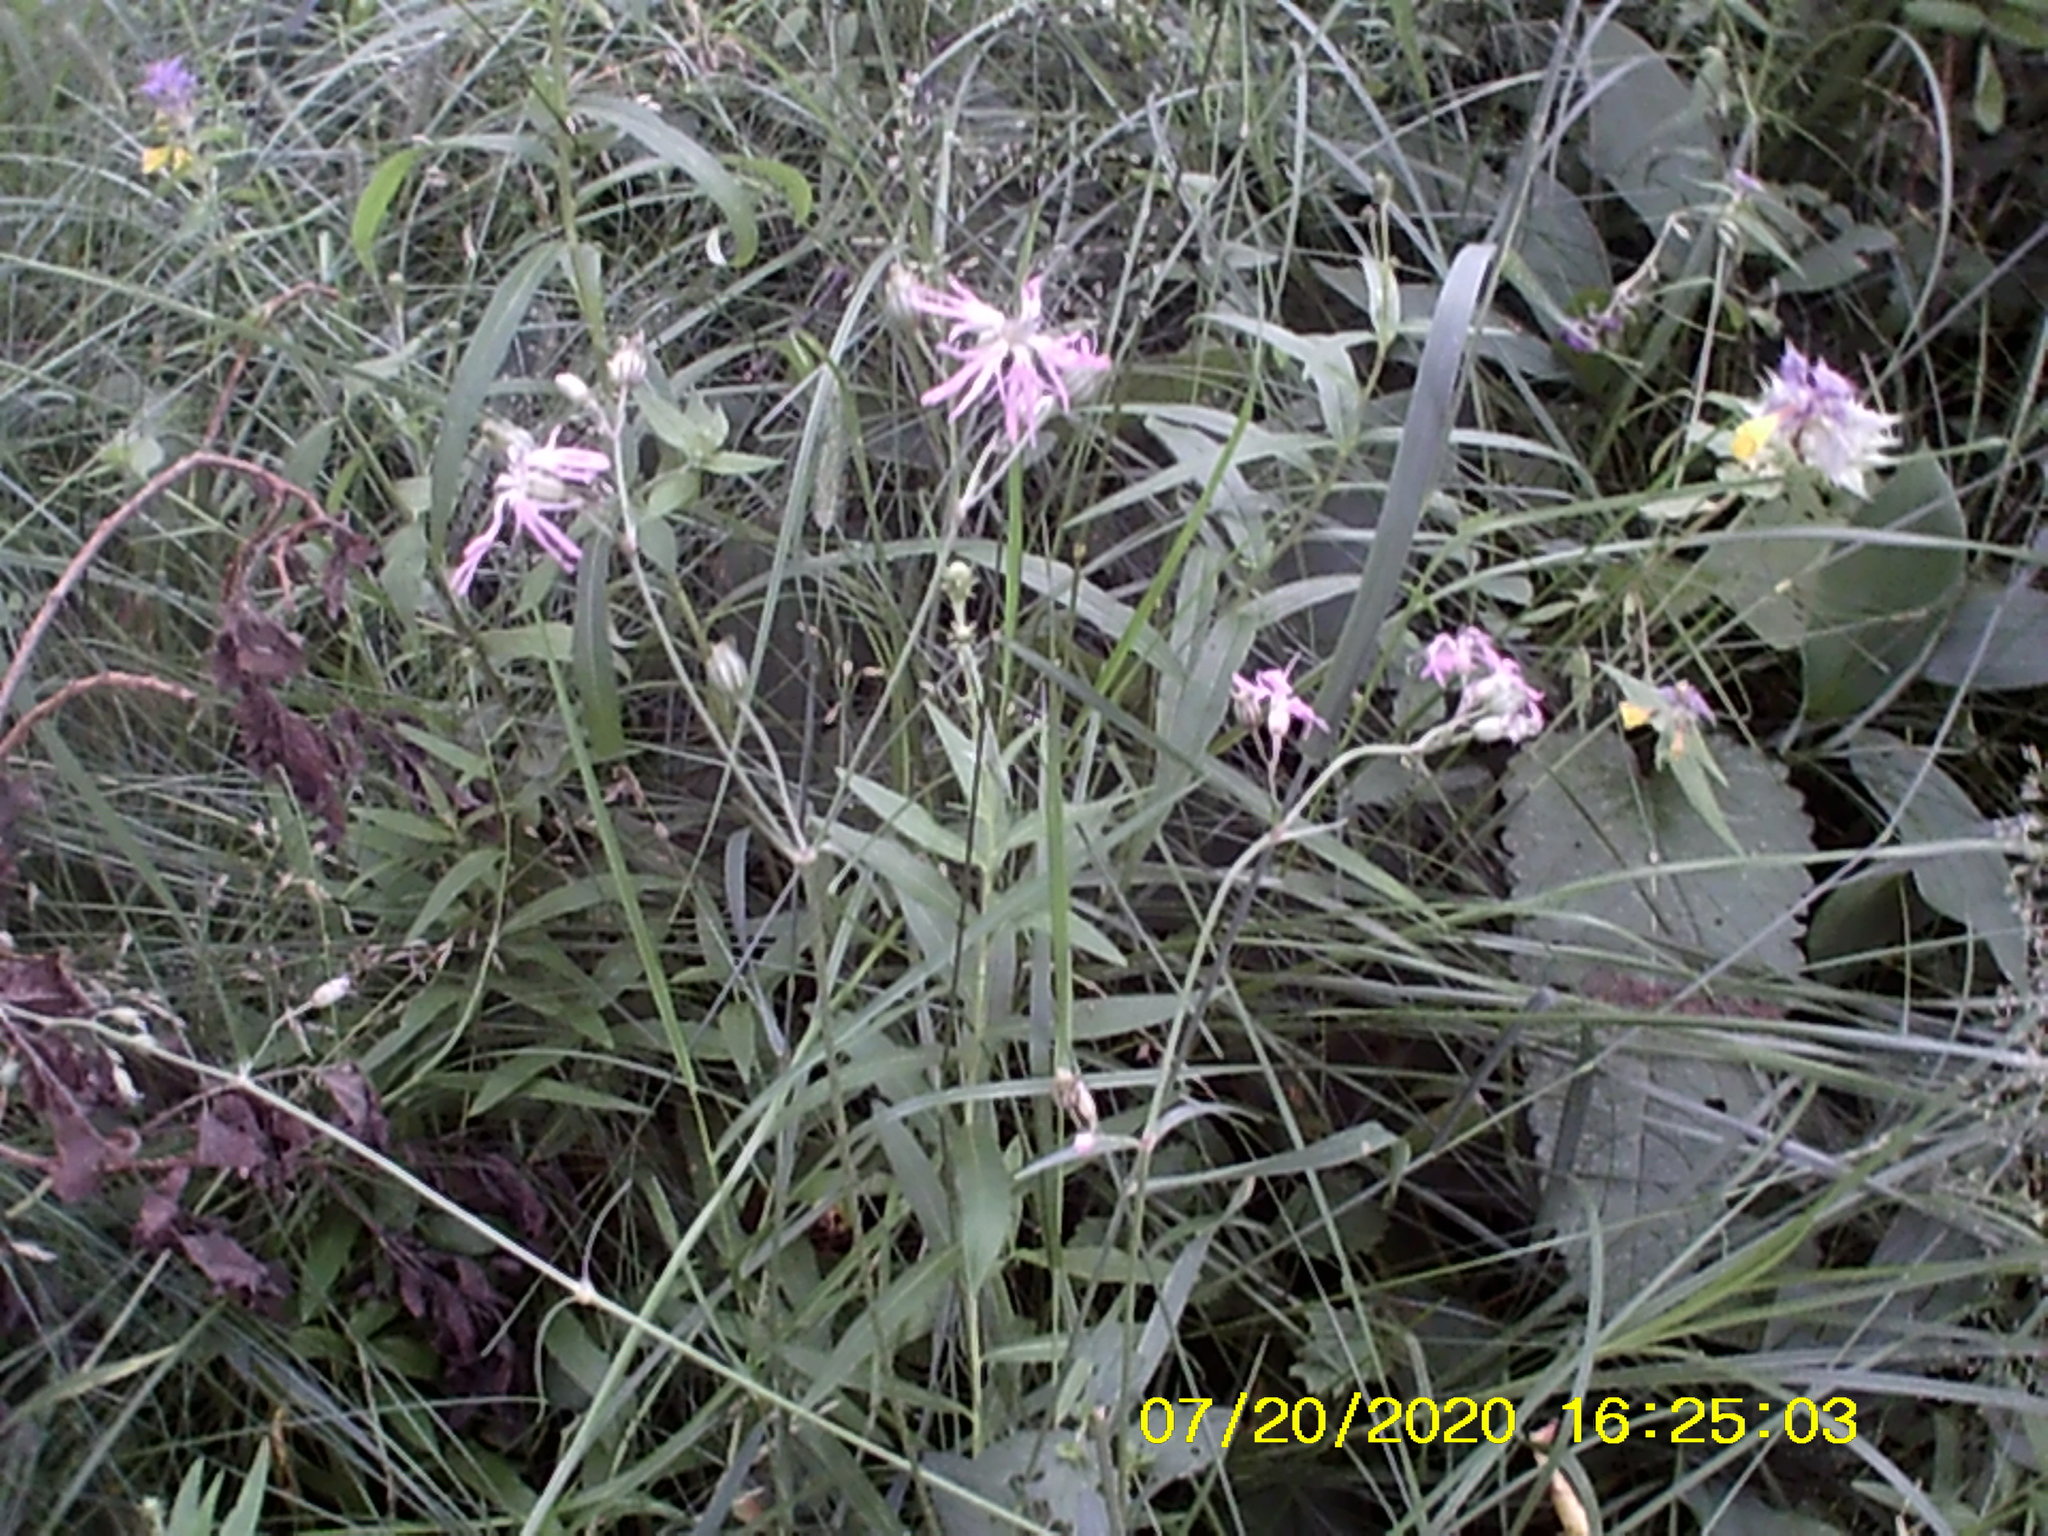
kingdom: Plantae
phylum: Tracheophyta
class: Magnoliopsida
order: Caryophyllales
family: Caryophyllaceae
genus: Silene
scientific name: Silene flos-cuculi
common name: Ragged-robin
